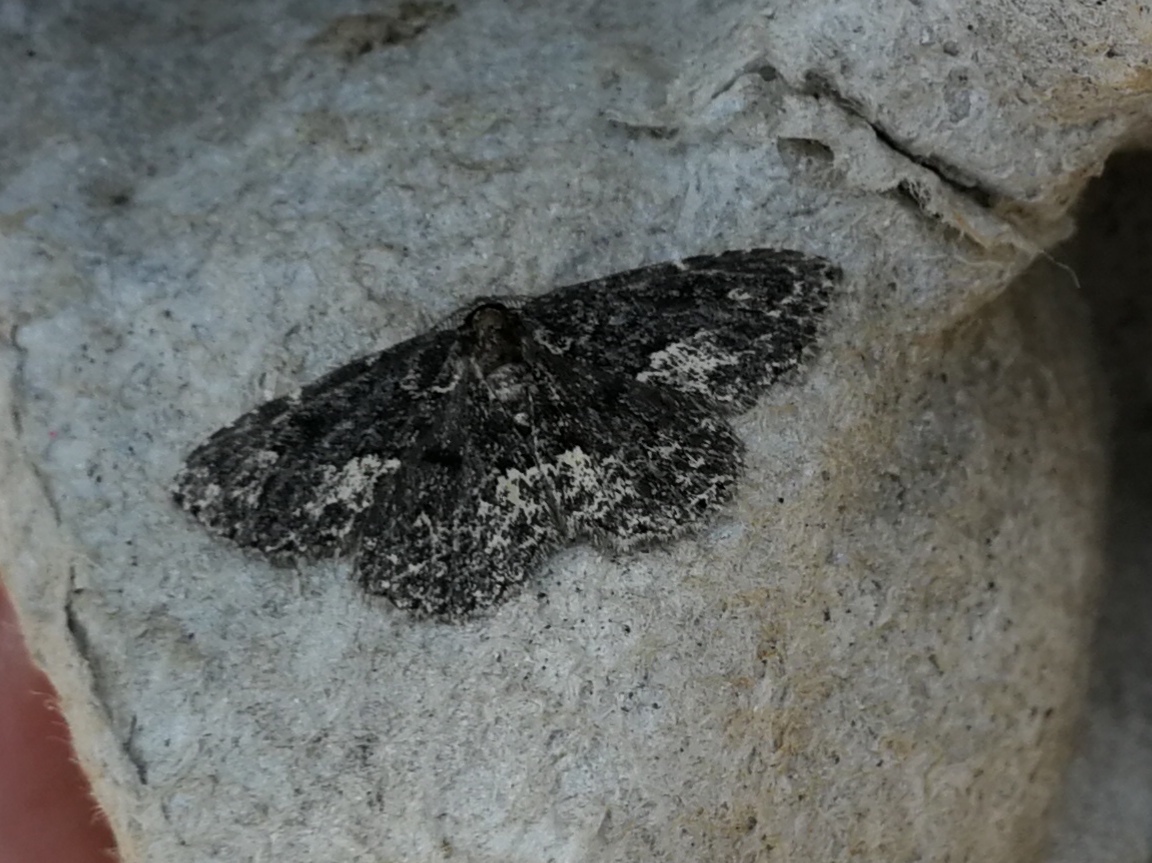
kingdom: Animalia
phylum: Arthropoda
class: Insecta
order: Lepidoptera
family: Erebidae
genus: Parascotia
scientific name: Parascotia fuliginaria
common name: Waved black
